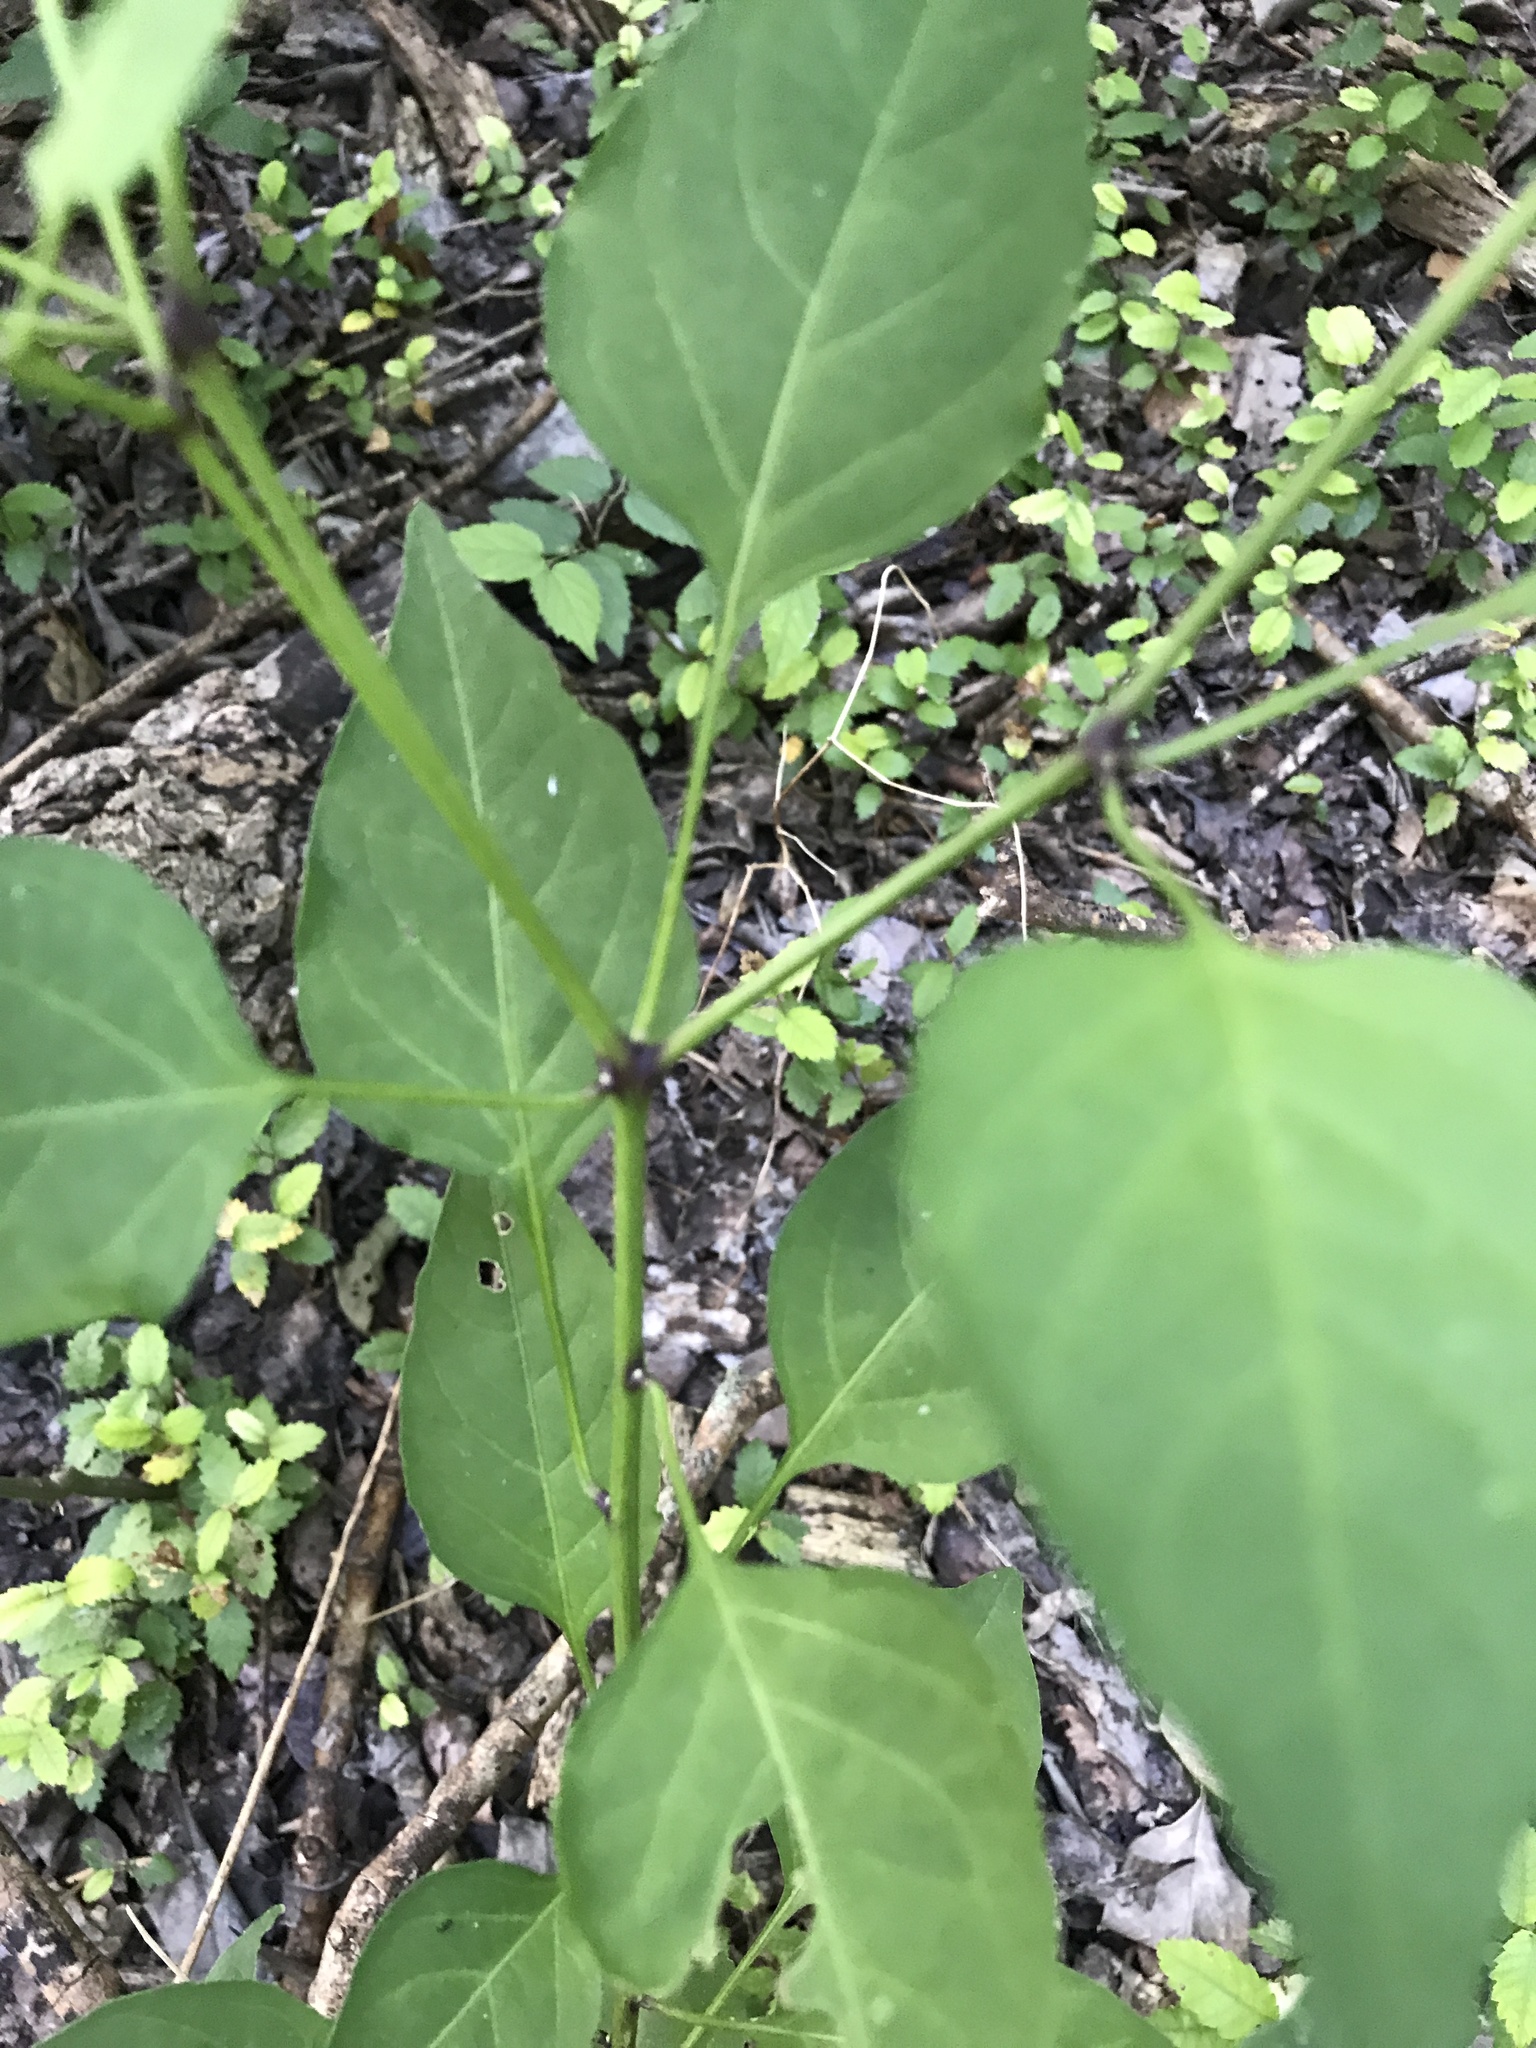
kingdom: Plantae
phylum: Tracheophyta
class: Magnoliopsida
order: Solanales
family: Solanaceae
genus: Capsicum
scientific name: Capsicum annuum
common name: Sweet pepper
